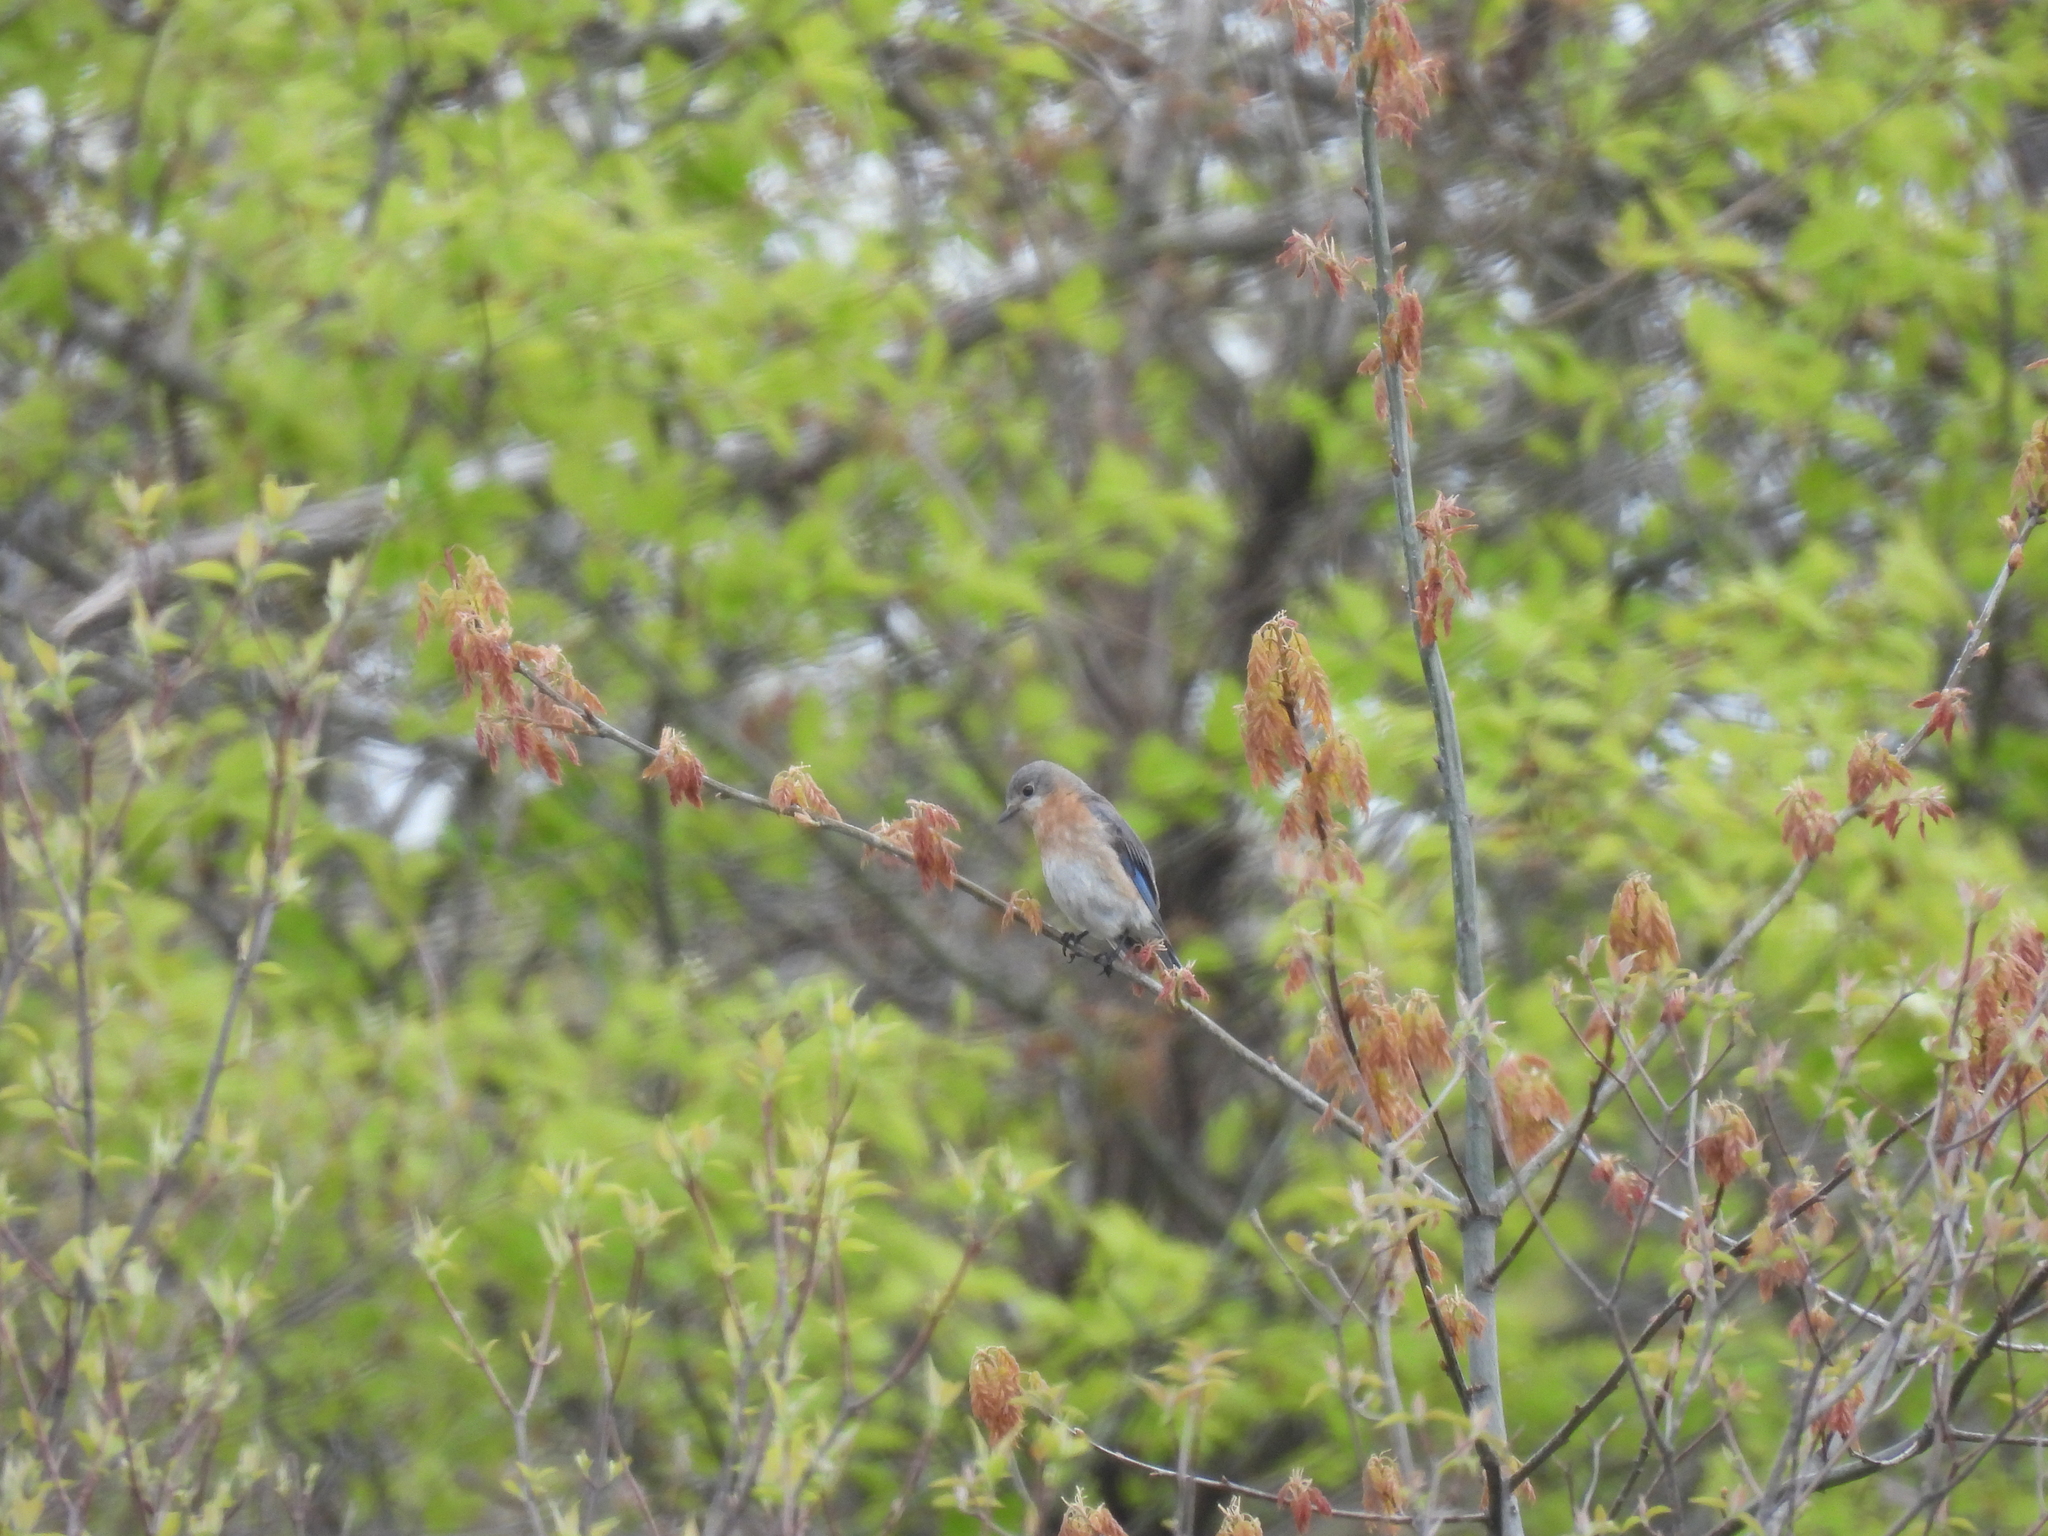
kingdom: Animalia
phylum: Chordata
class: Aves
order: Passeriformes
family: Turdidae
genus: Sialia
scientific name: Sialia sialis
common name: Eastern bluebird
